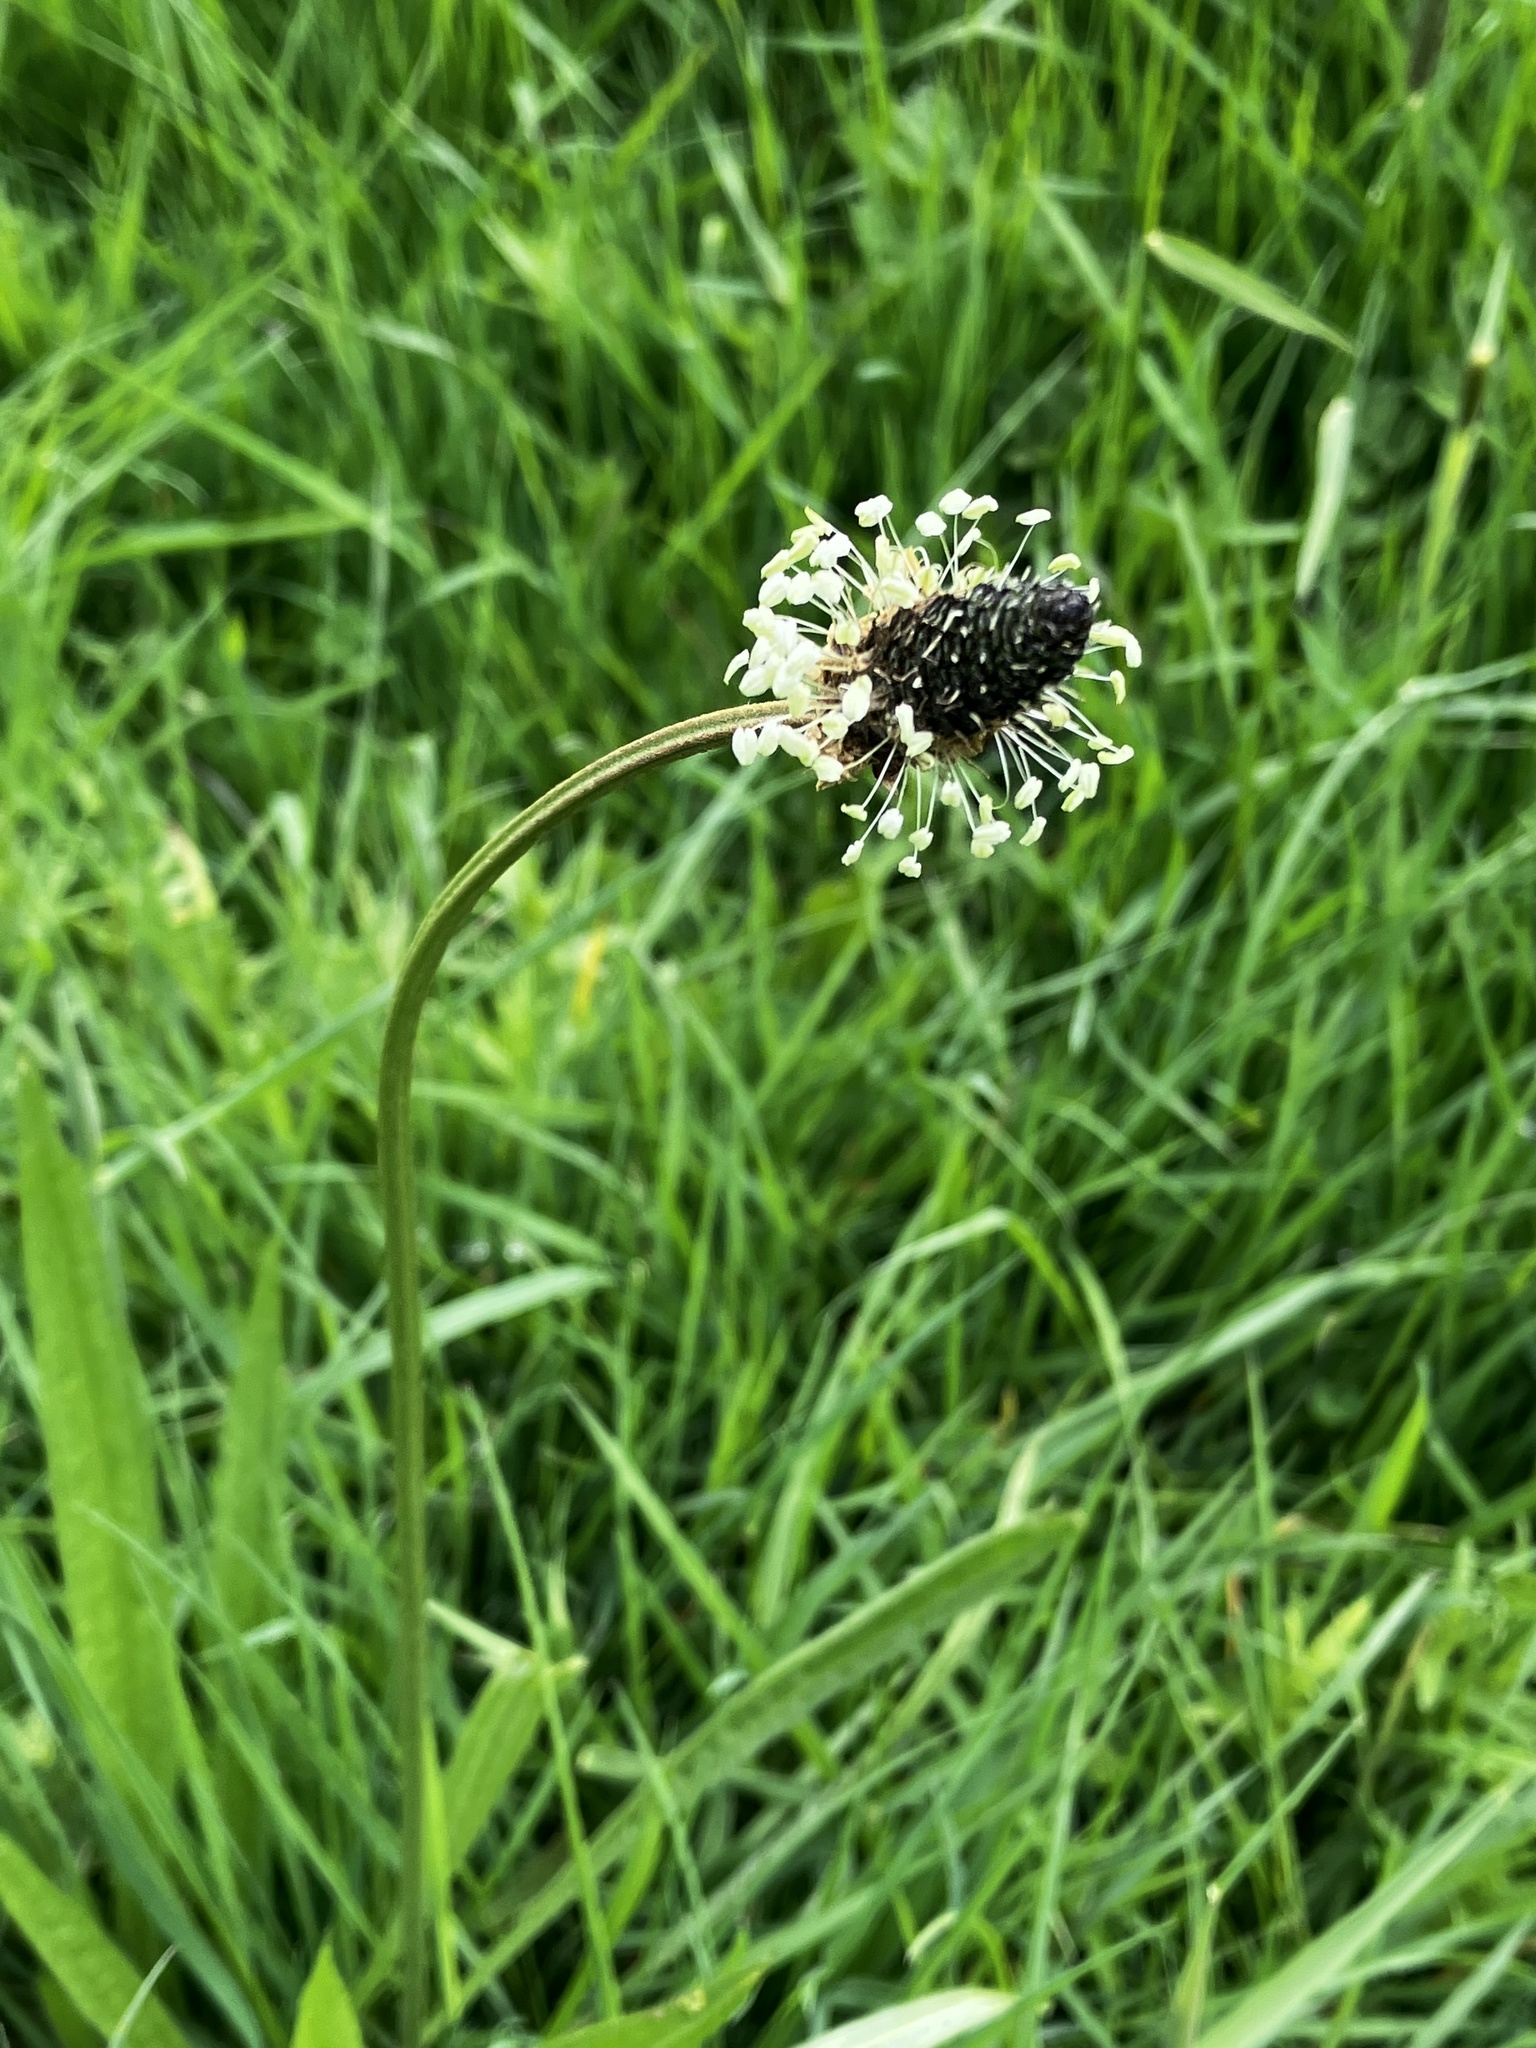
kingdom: Plantae
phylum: Tracheophyta
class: Magnoliopsida
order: Lamiales
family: Plantaginaceae
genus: Plantago
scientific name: Plantago lanceolata
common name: Ribwort plantain
